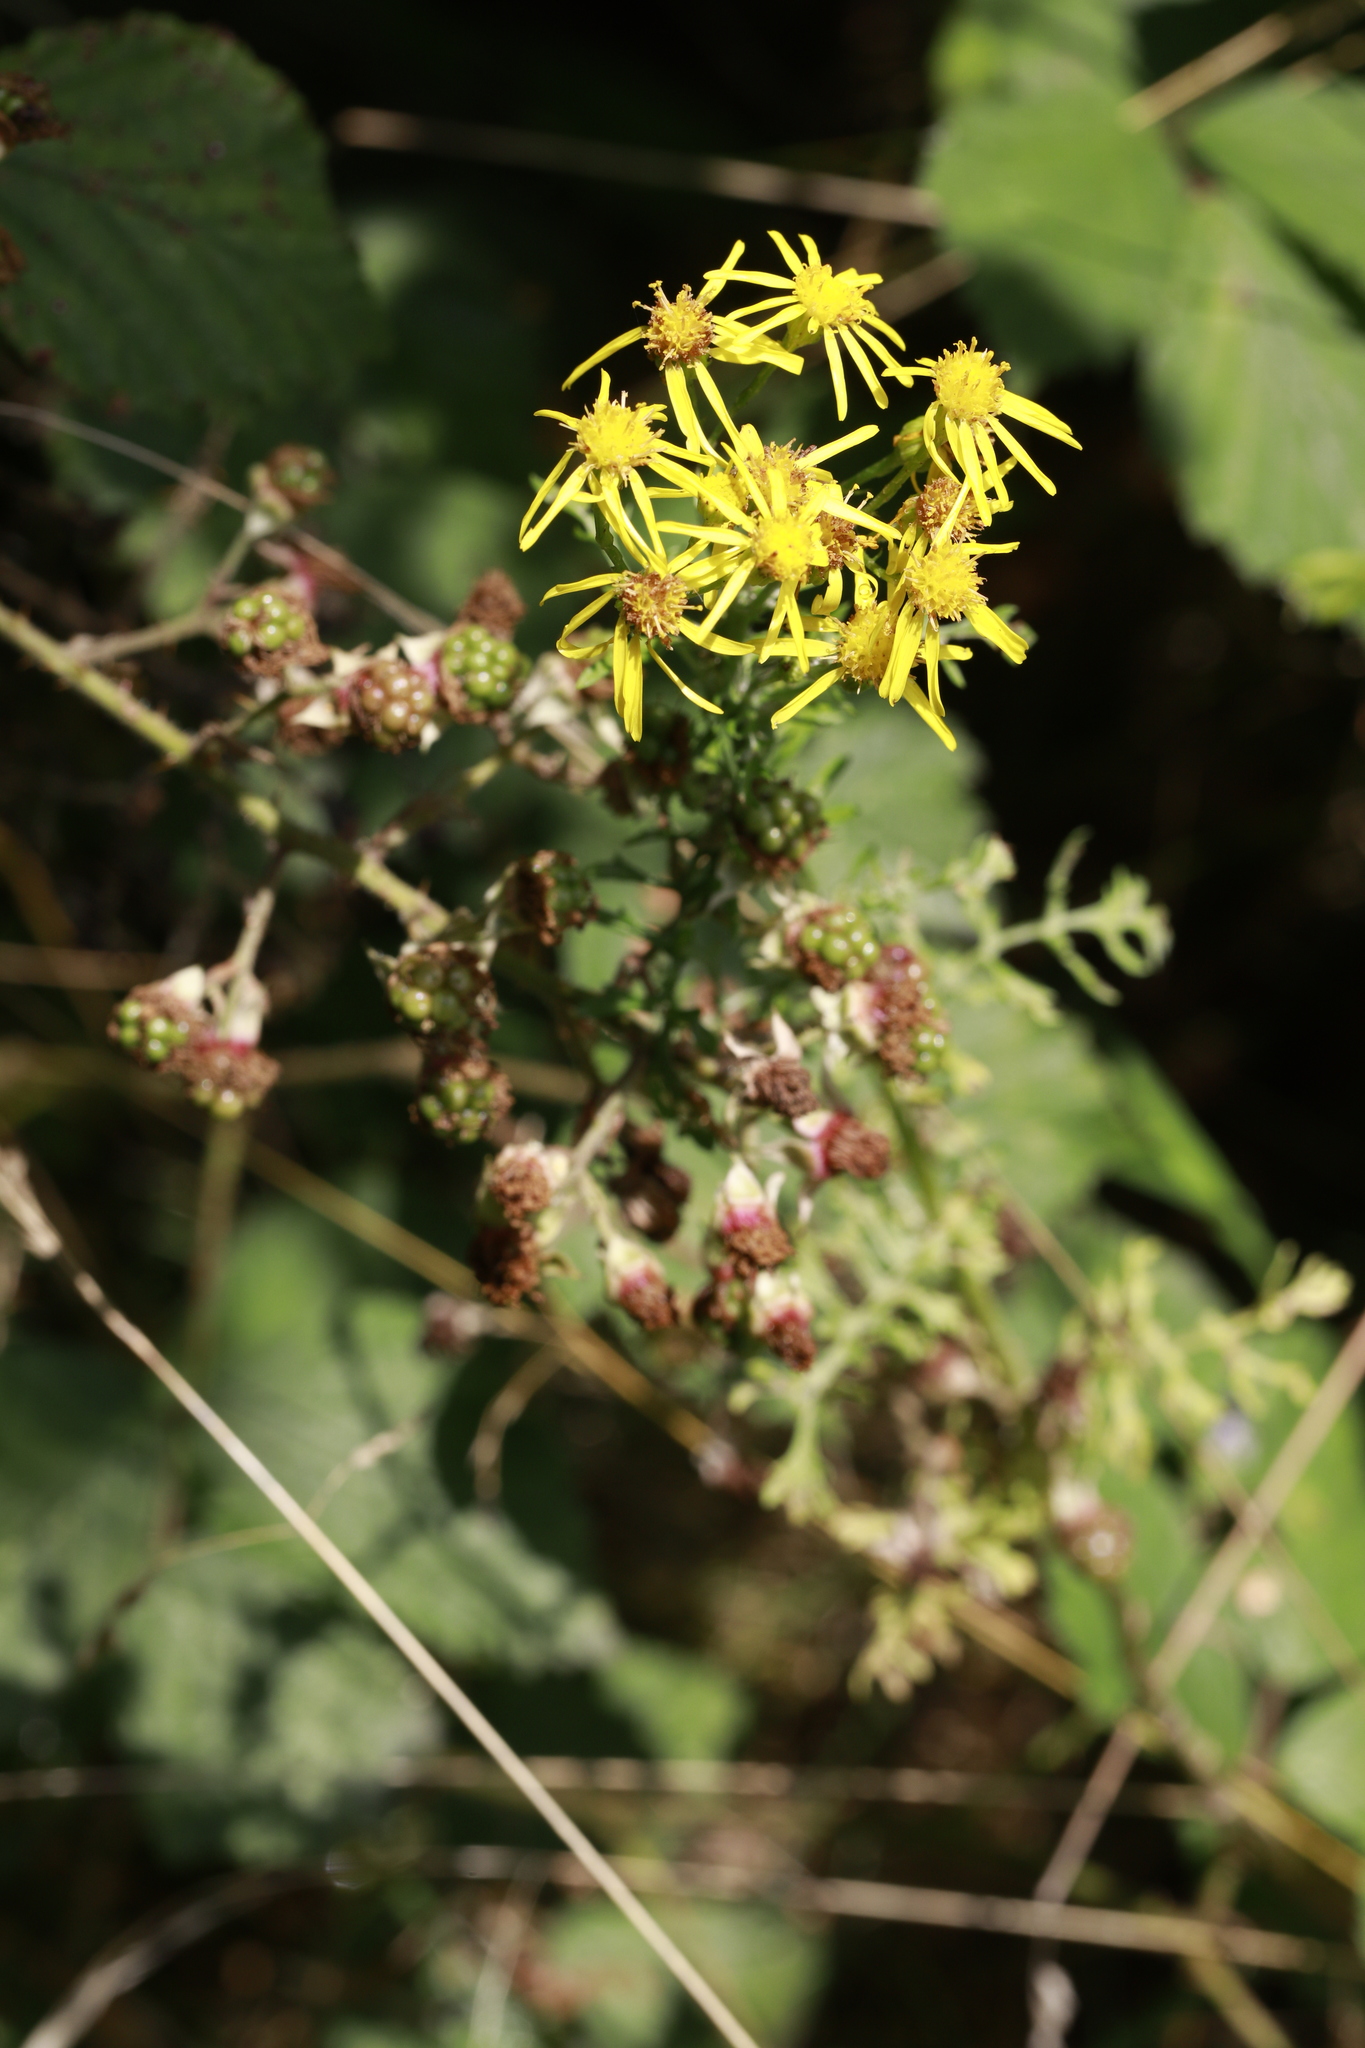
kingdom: Plantae
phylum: Tracheophyta
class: Magnoliopsida
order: Asterales
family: Asteraceae
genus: Jacobaea
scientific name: Jacobaea vulgaris
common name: Stinking willie
